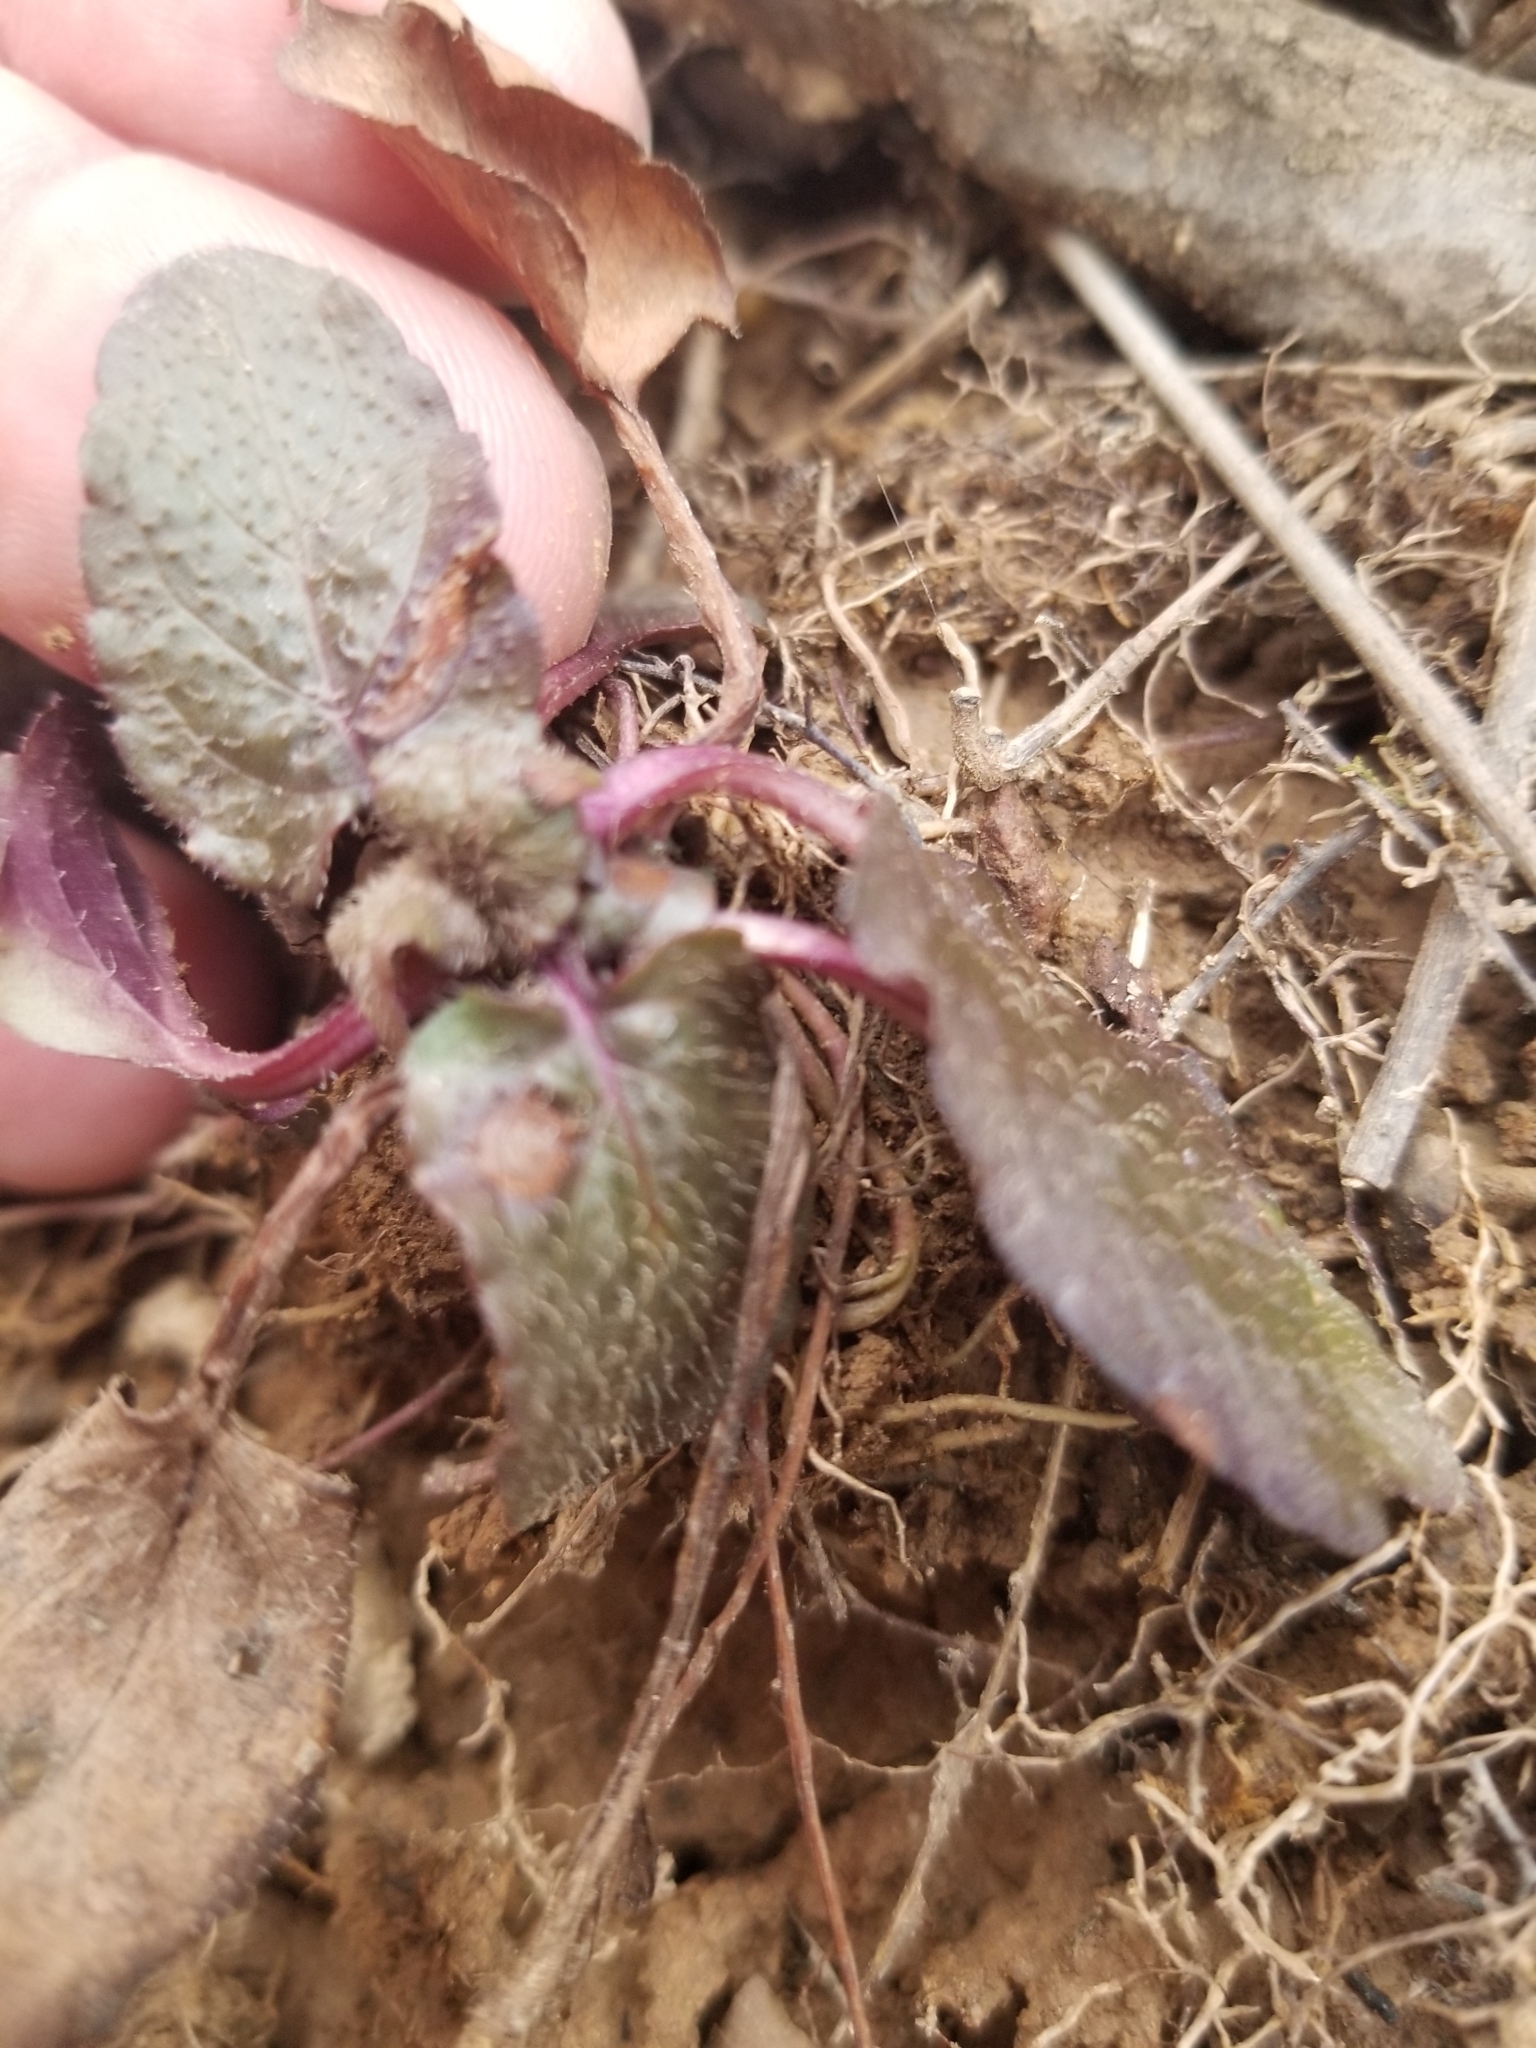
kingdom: Plantae
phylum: Tracheophyta
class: Magnoliopsida
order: Asterales
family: Asteraceae
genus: Hieracium
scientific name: Hieracium venosum
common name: Rattlesnake hawkweed
